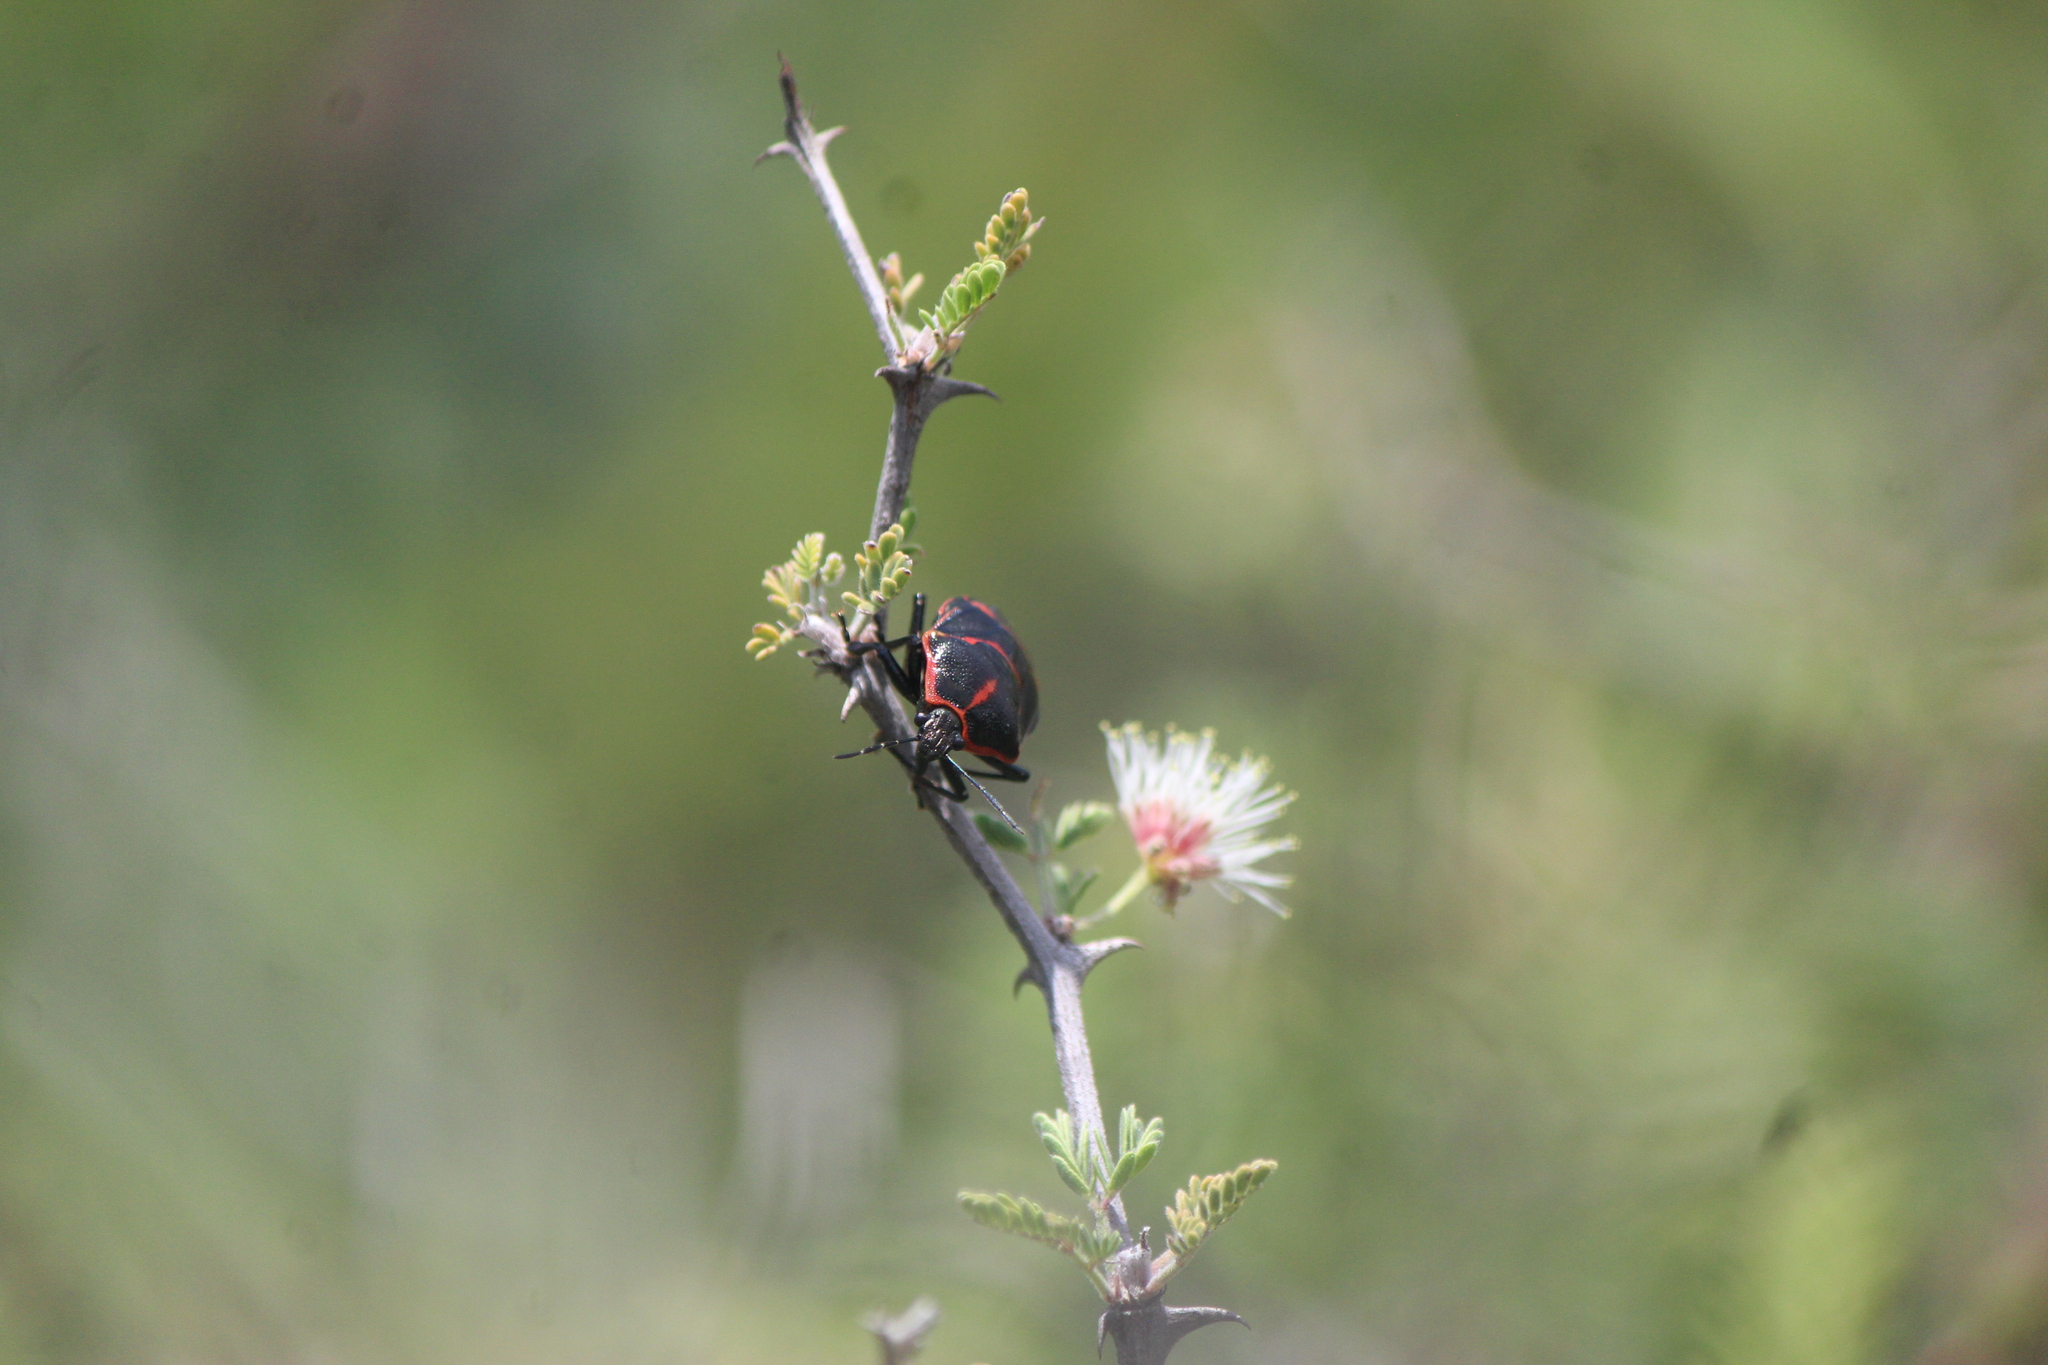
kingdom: Animalia
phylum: Arthropoda
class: Insecta
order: Hemiptera
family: Pentatomidae
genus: Cosmopepla
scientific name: Cosmopepla lintneriana
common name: Twice-stabbed stink bug
